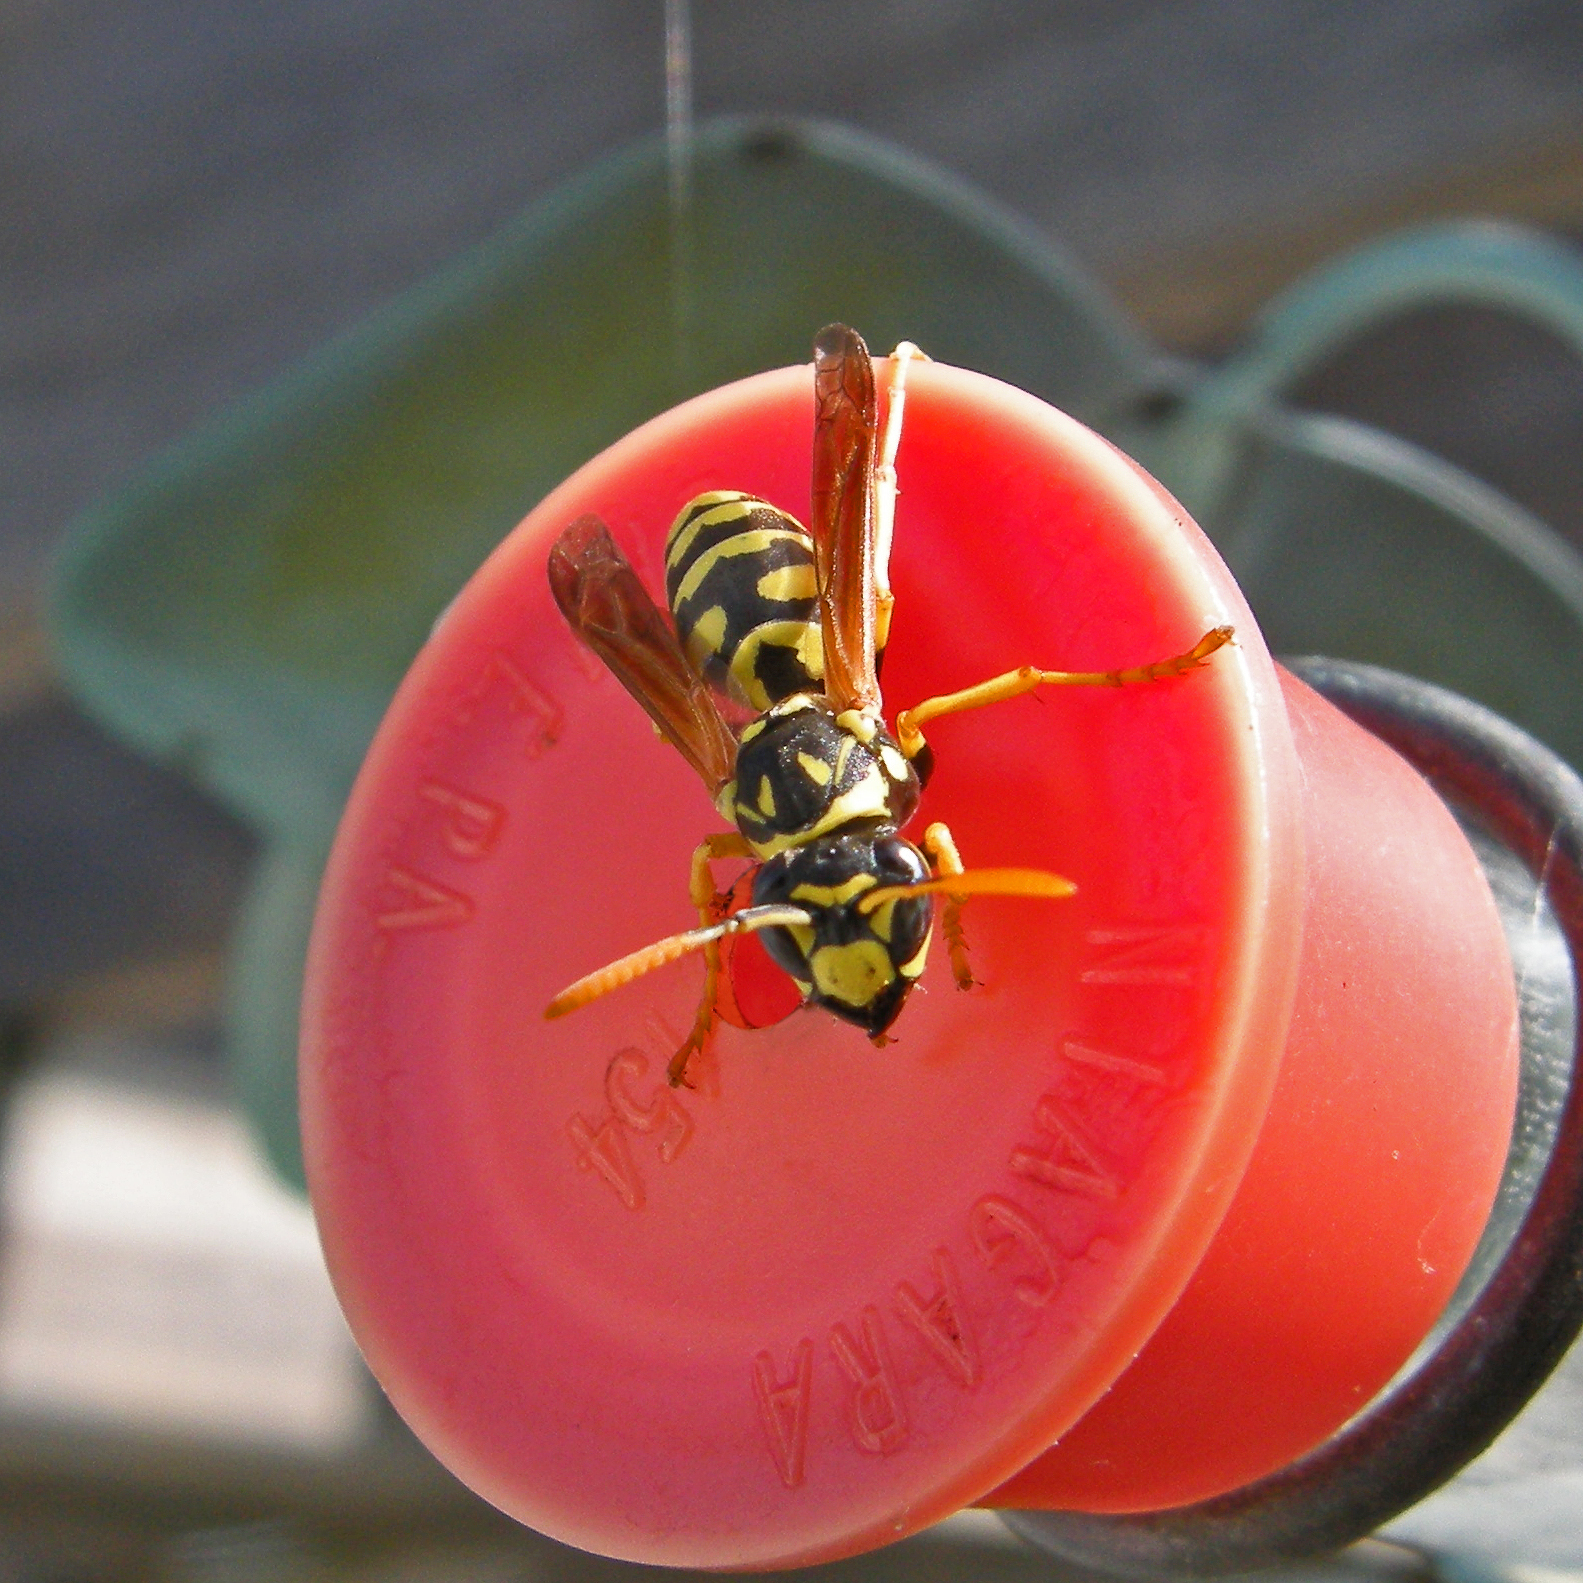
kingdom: Animalia
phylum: Arthropoda
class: Insecta
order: Hymenoptera
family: Eumenidae
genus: Polistes
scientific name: Polistes dominula
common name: Paper wasp
